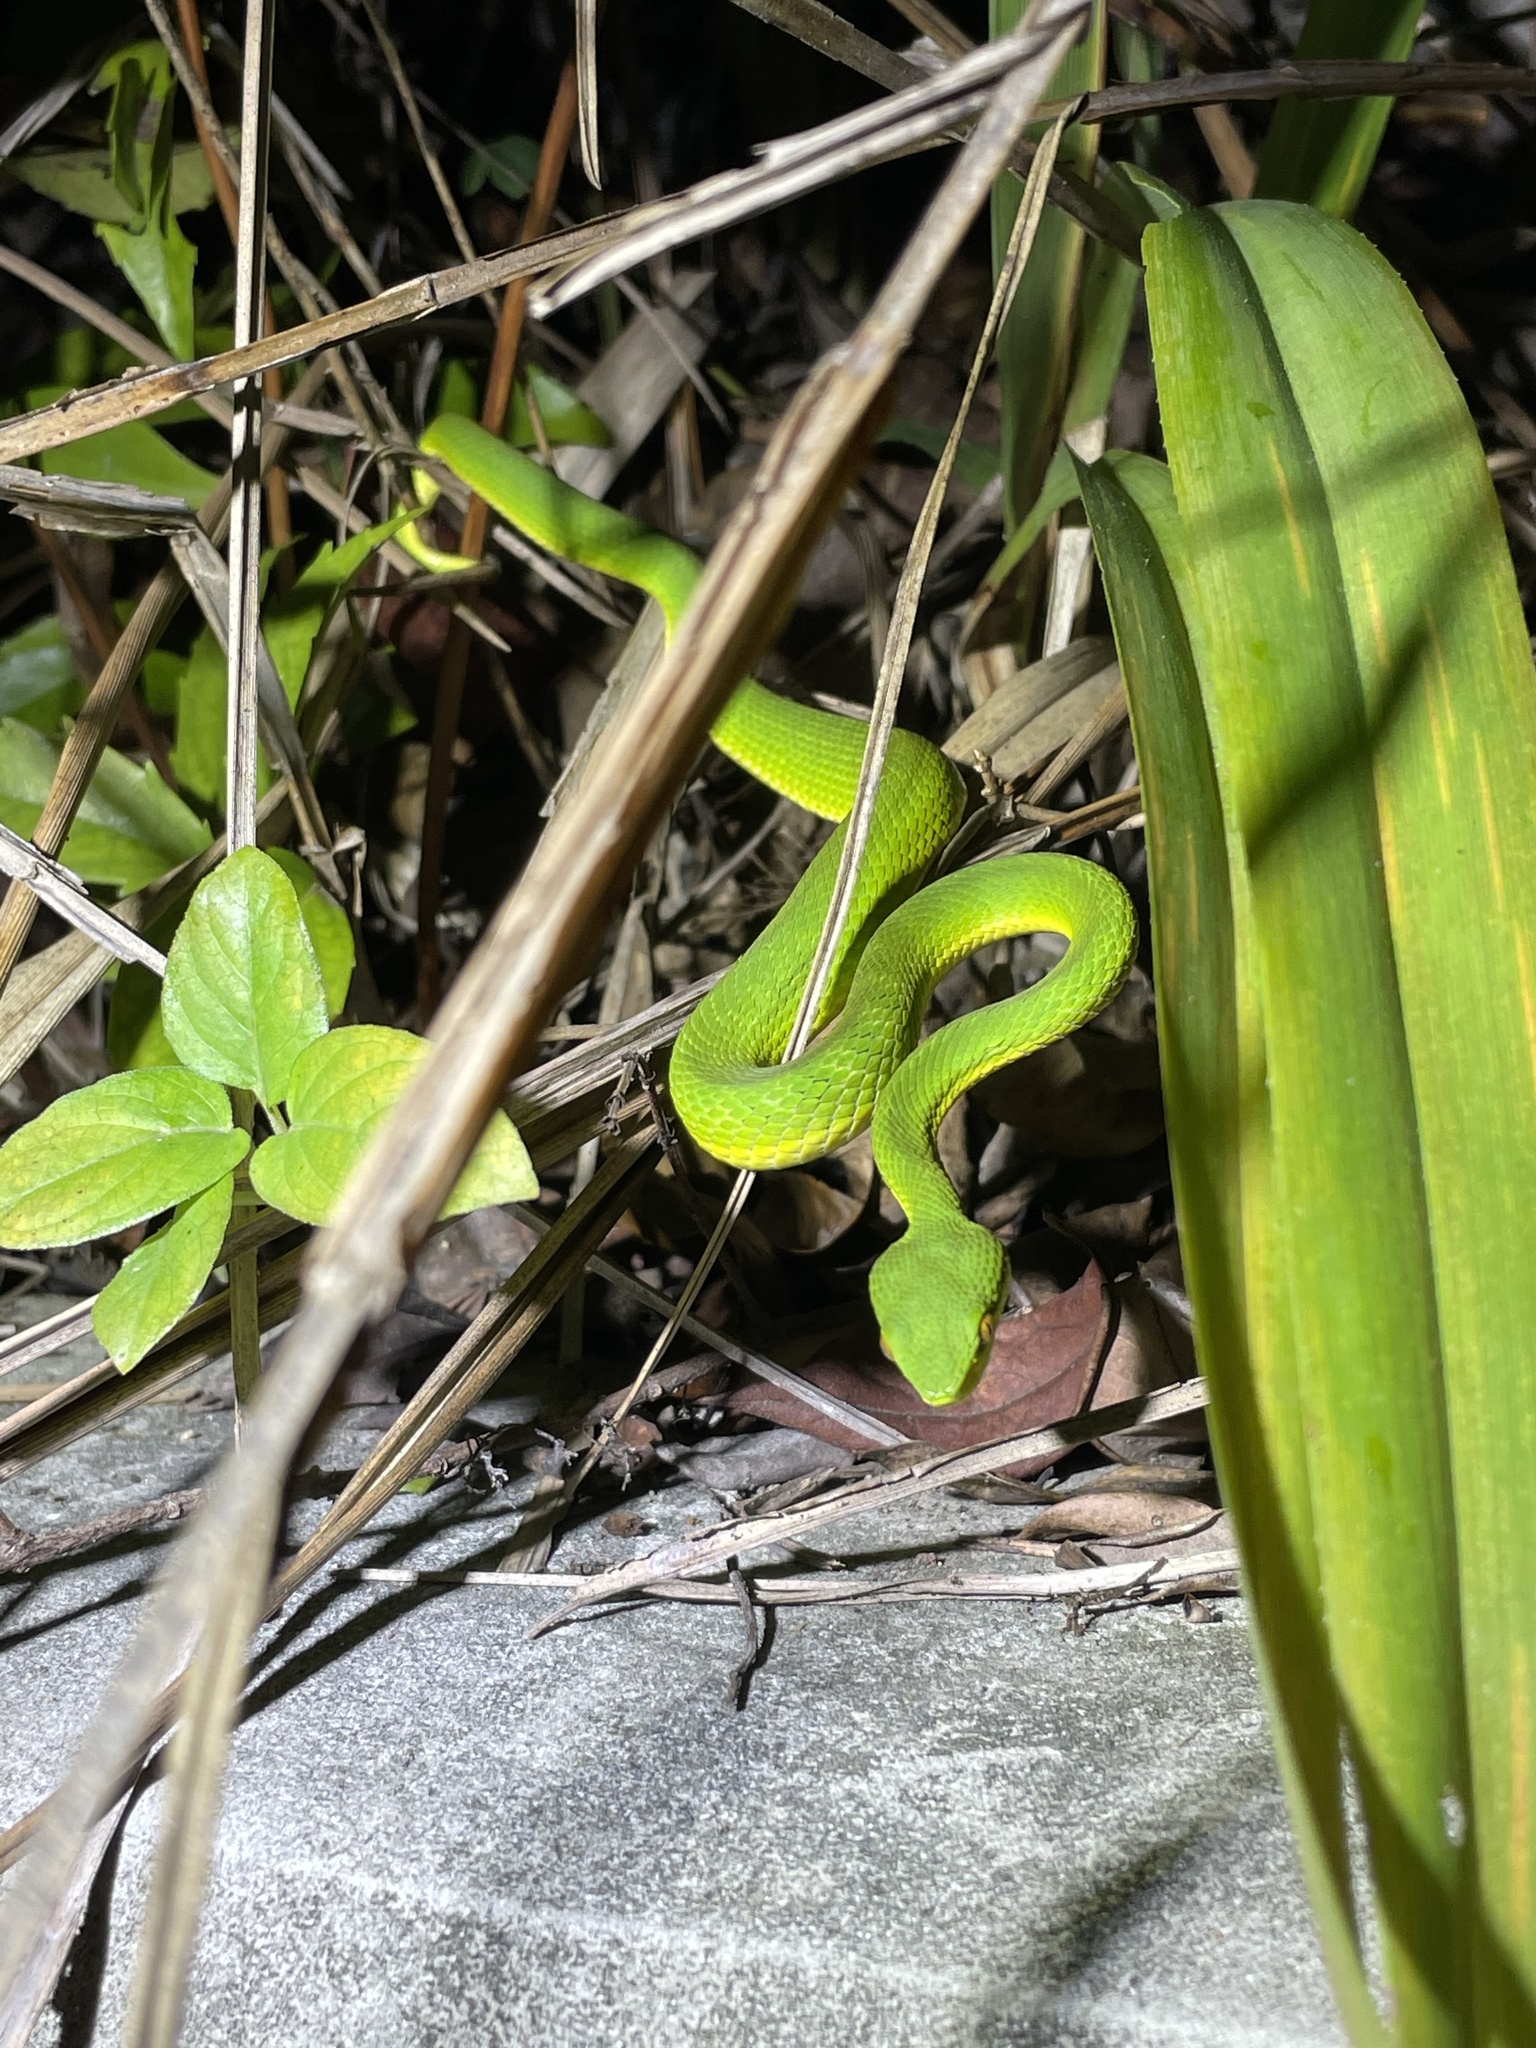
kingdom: Animalia
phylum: Chordata
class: Squamata
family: Viperidae
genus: Trimeresurus
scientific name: Trimeresurus albolabris
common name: White-lipped pitviper
